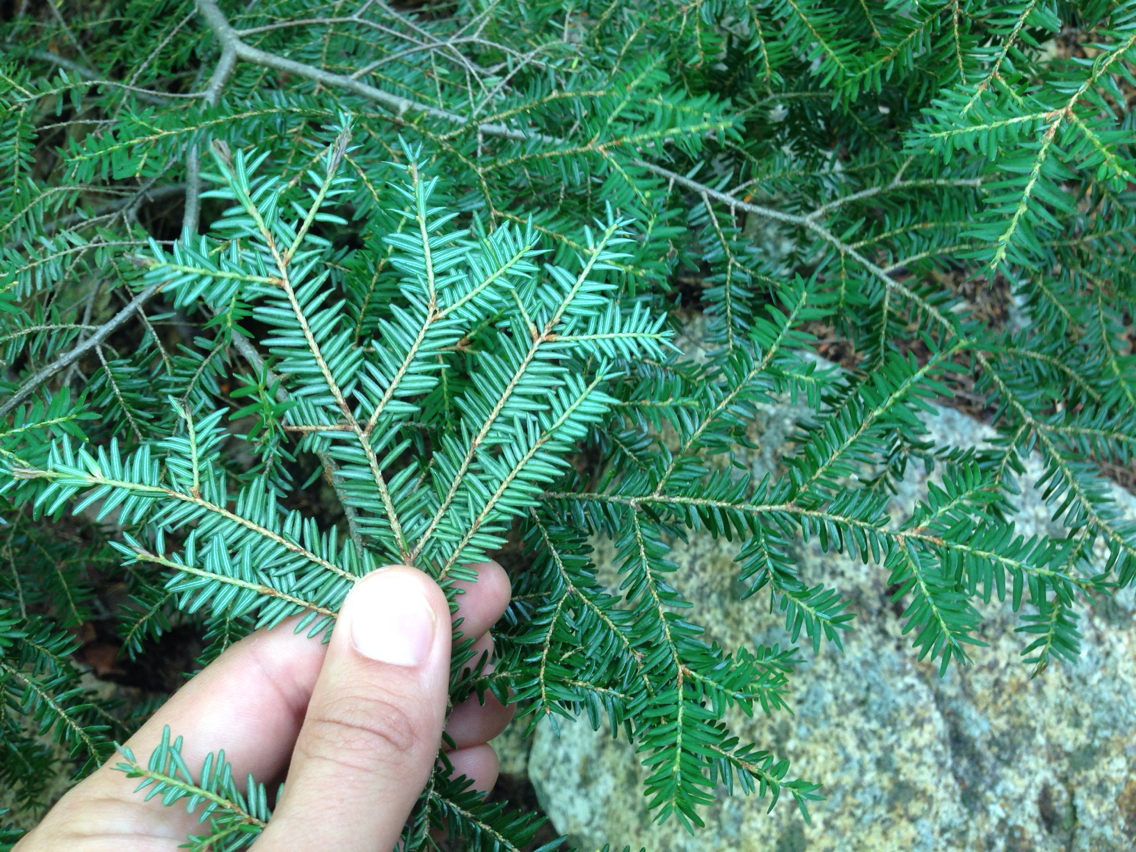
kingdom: Plantae
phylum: Tracheophyta
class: Pinopsida
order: Pinales
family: Pinaceae
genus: Tsuga
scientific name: Tsuga canadensis
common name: Eastern hemlock
